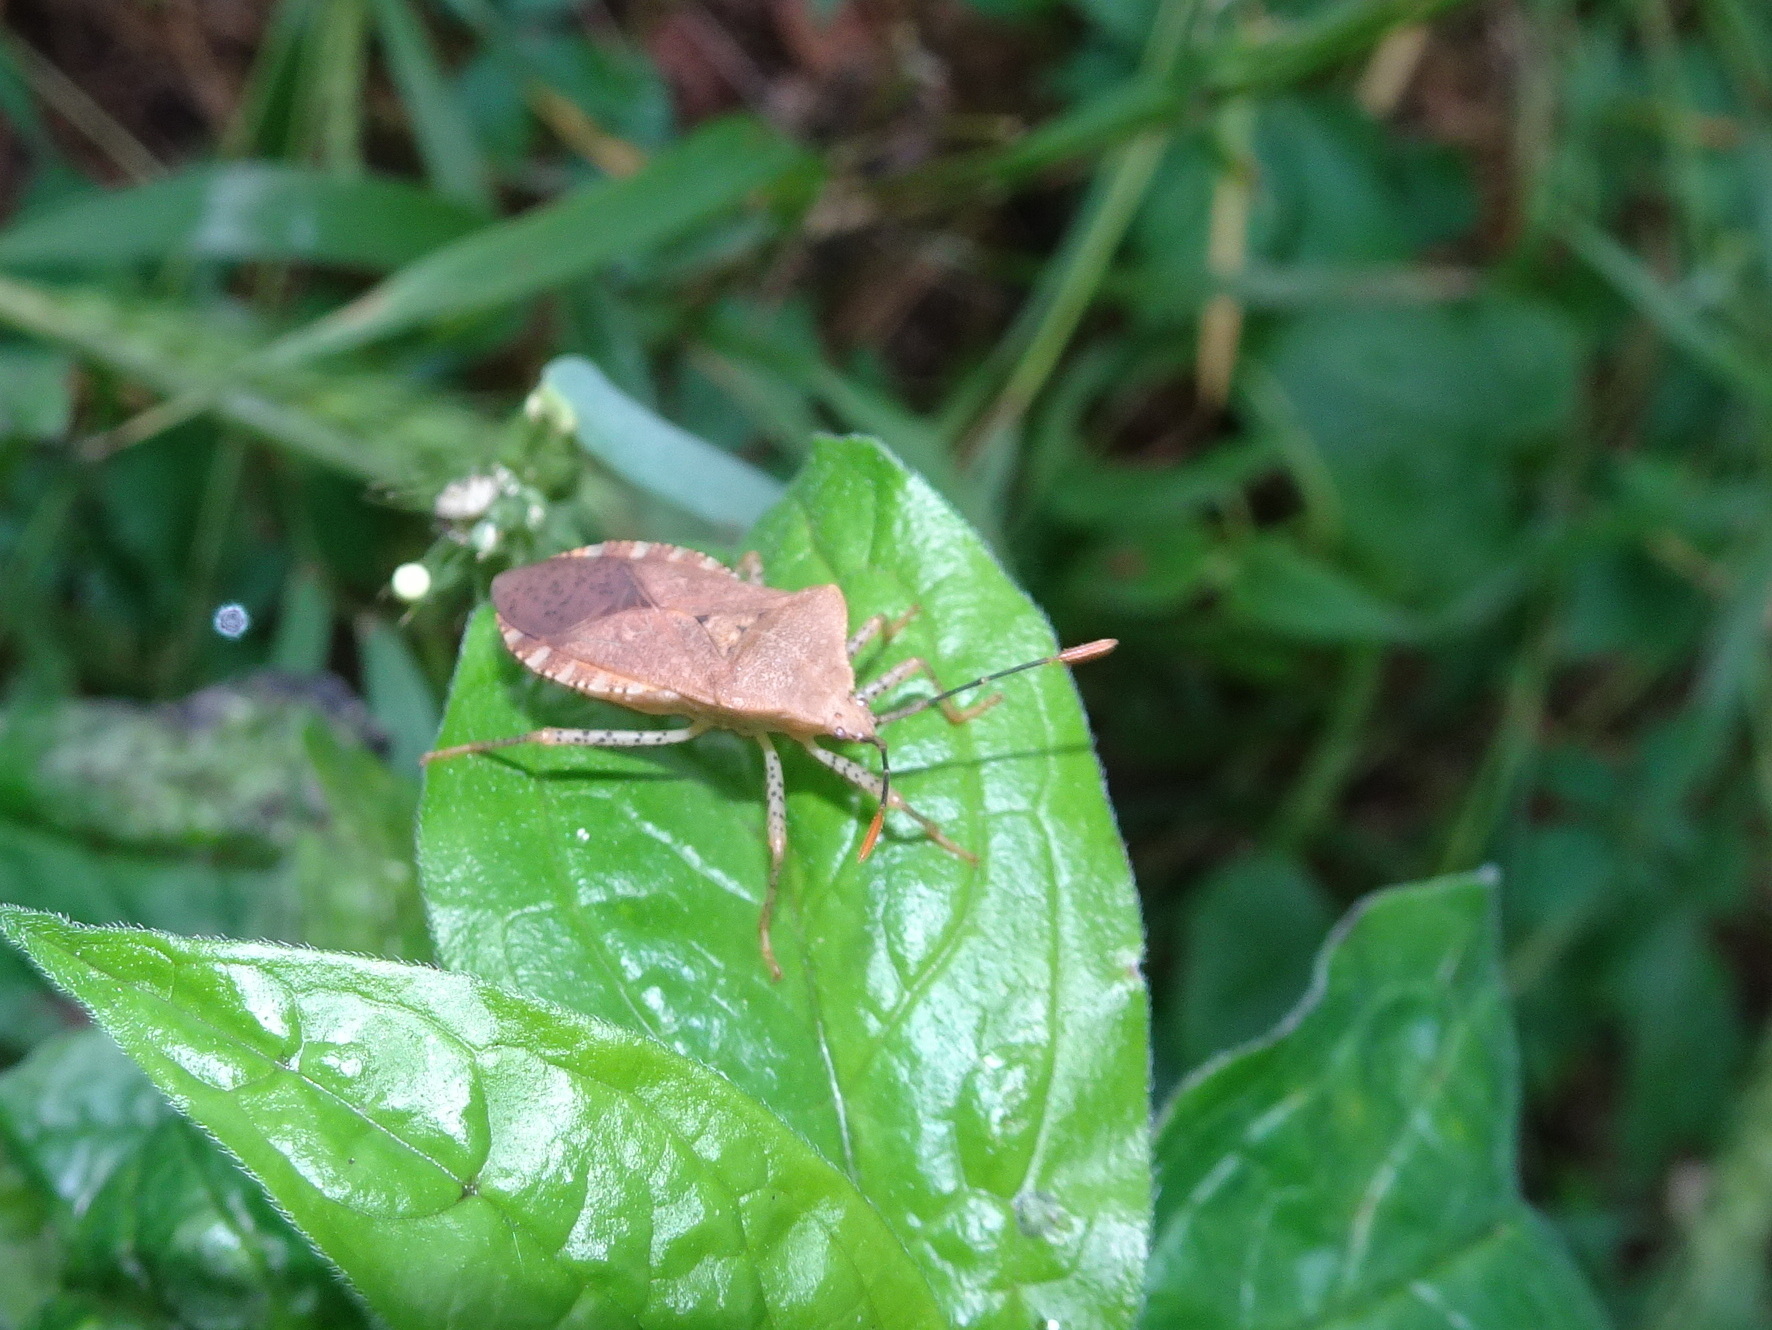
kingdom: Animalia
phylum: Arthropoda
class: Insecta
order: Hemiptera
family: Coreidae
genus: Anasa
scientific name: Anasa repetita
